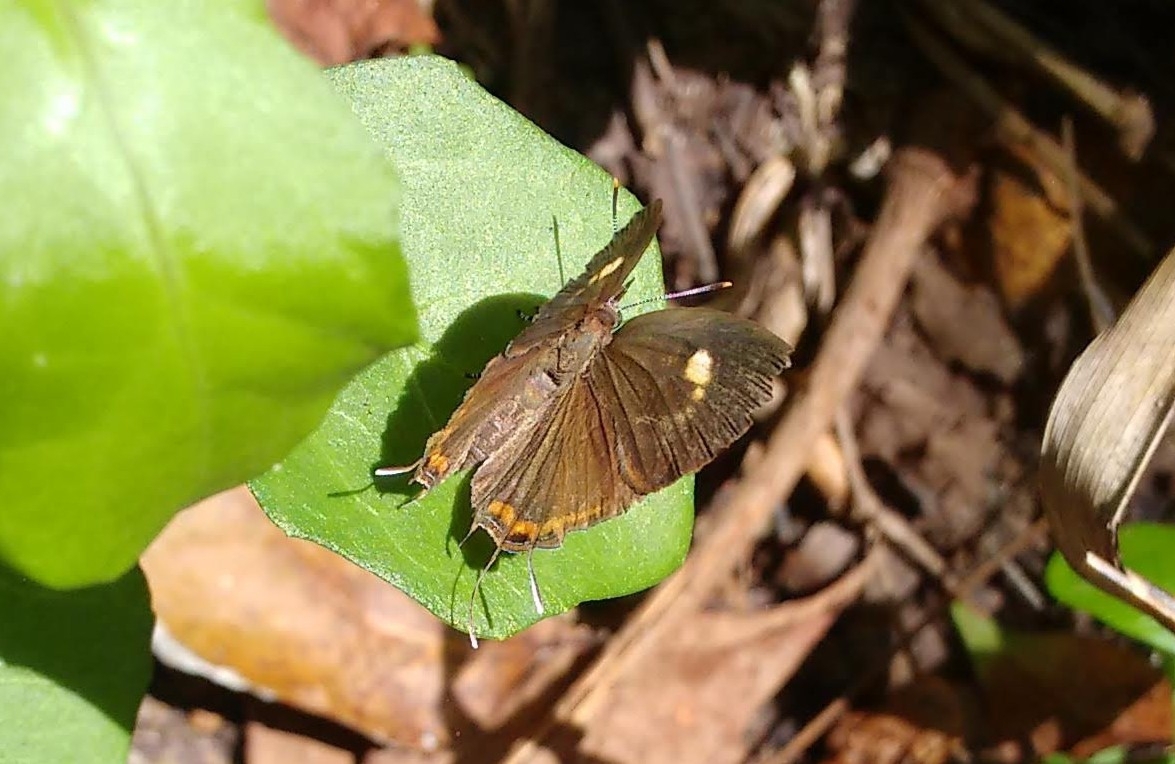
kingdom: Animalia
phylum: Arthropoda
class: Insecta
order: Lepidoptera
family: Lycaenidae
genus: Rathinda
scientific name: Rathinda amor
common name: Monkey puzzle
